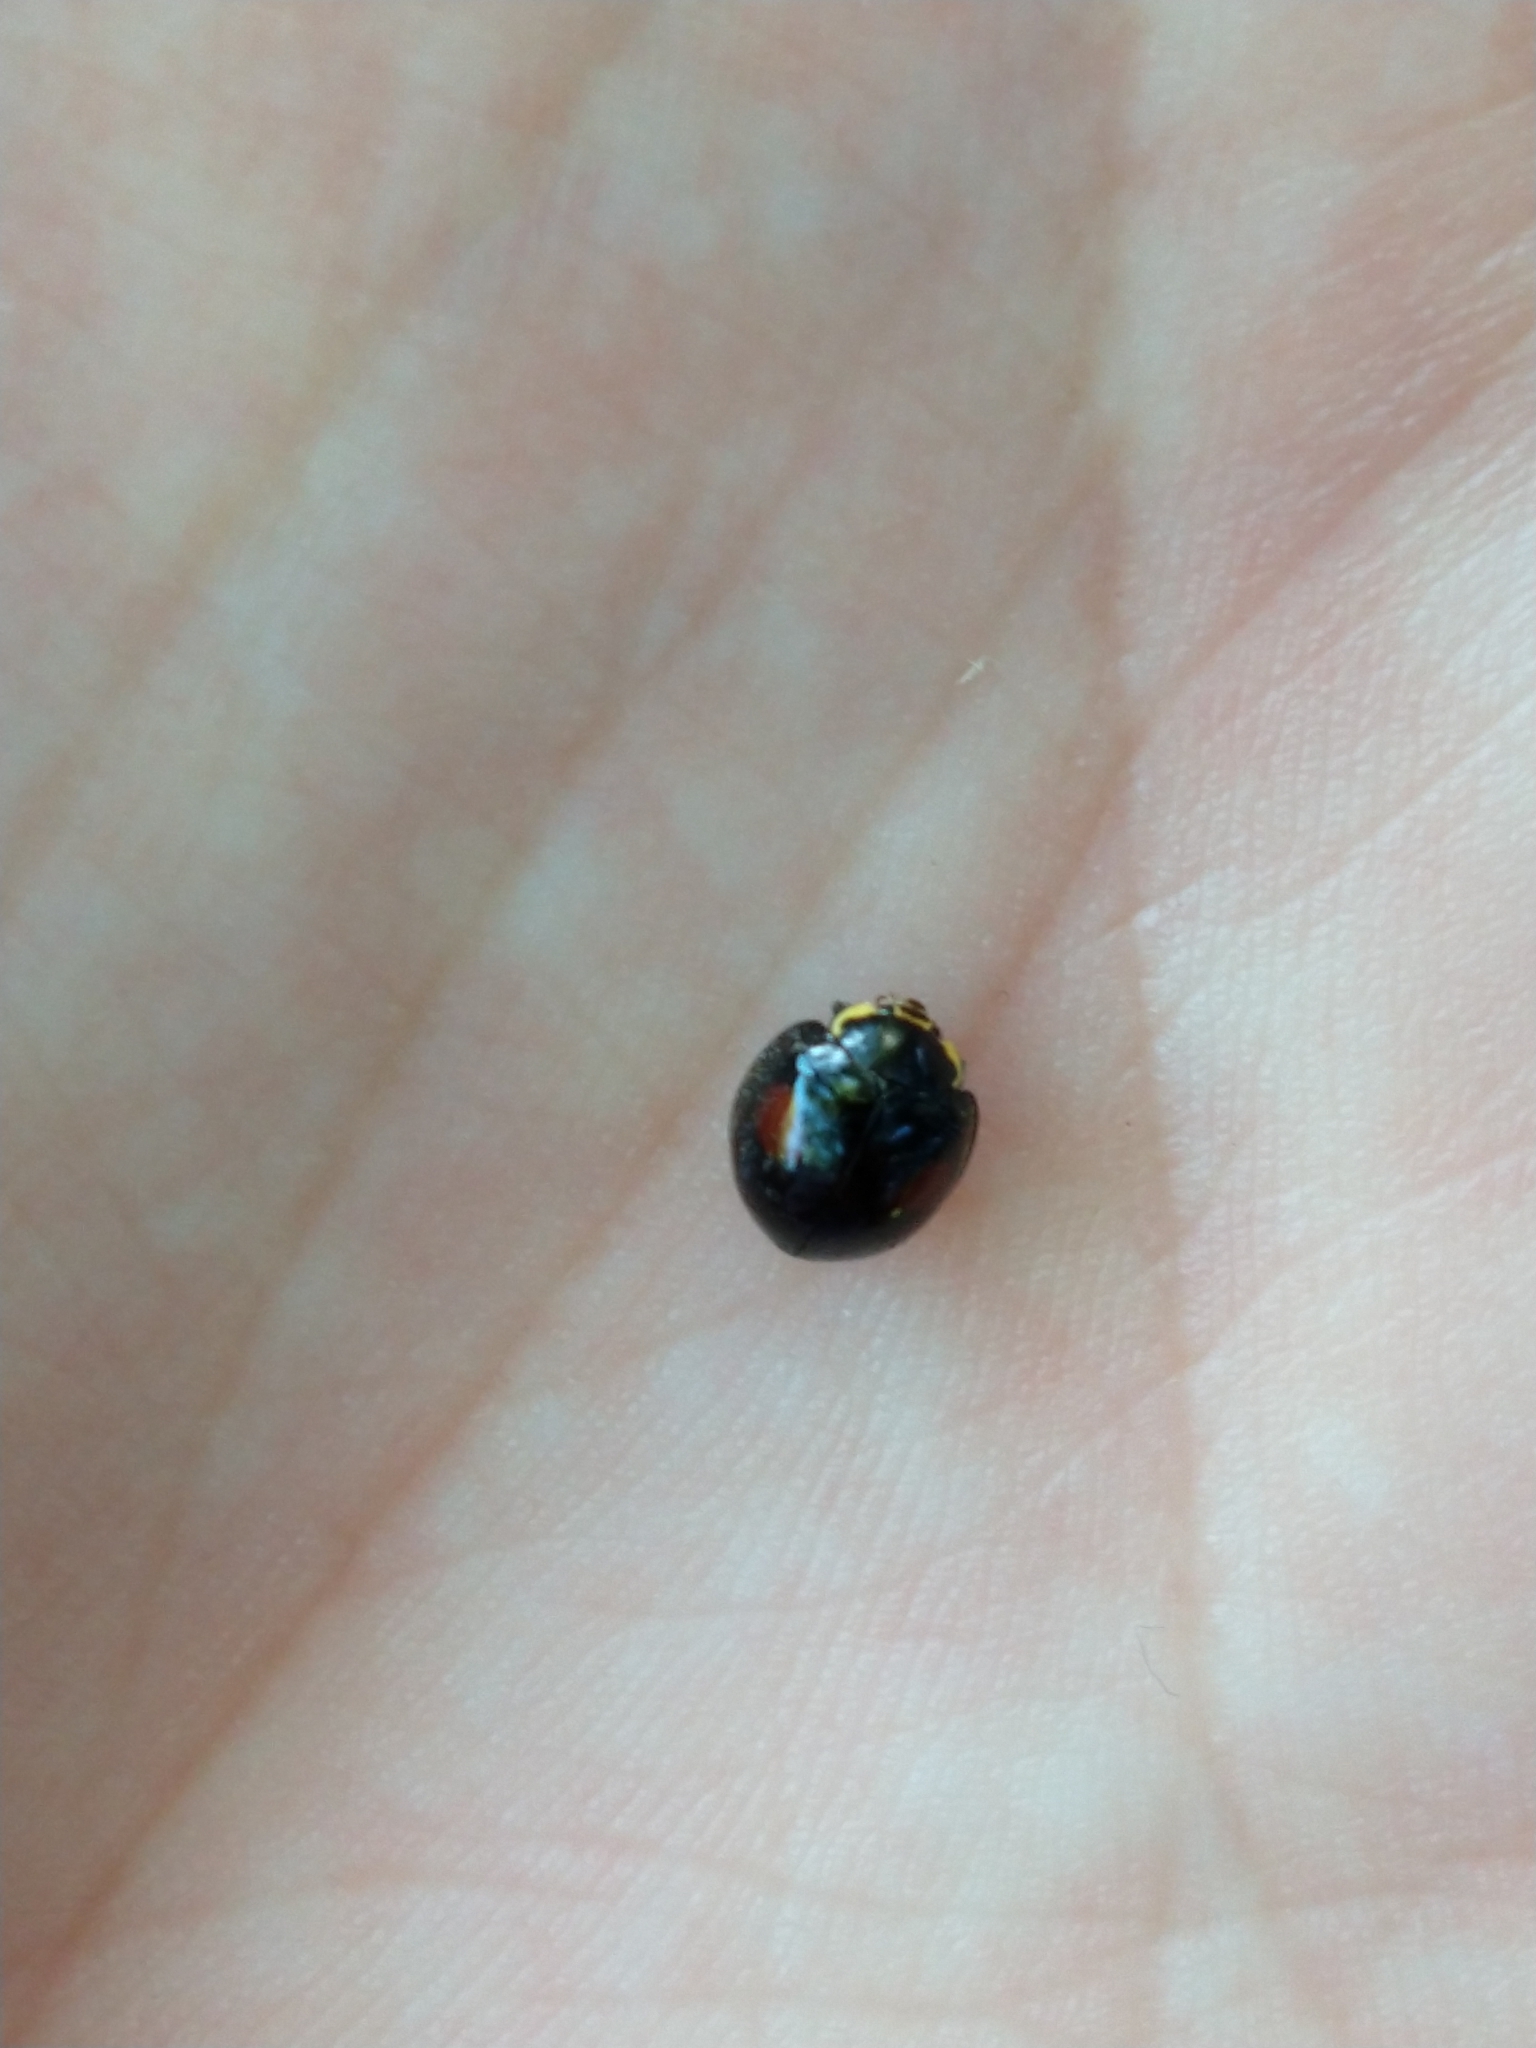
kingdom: Animalia
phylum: Arthropoda
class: Insecta
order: Coleoptera
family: Coccinellidae
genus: Olla
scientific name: Olla v-nigrum
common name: Ashy gray lady beetle
